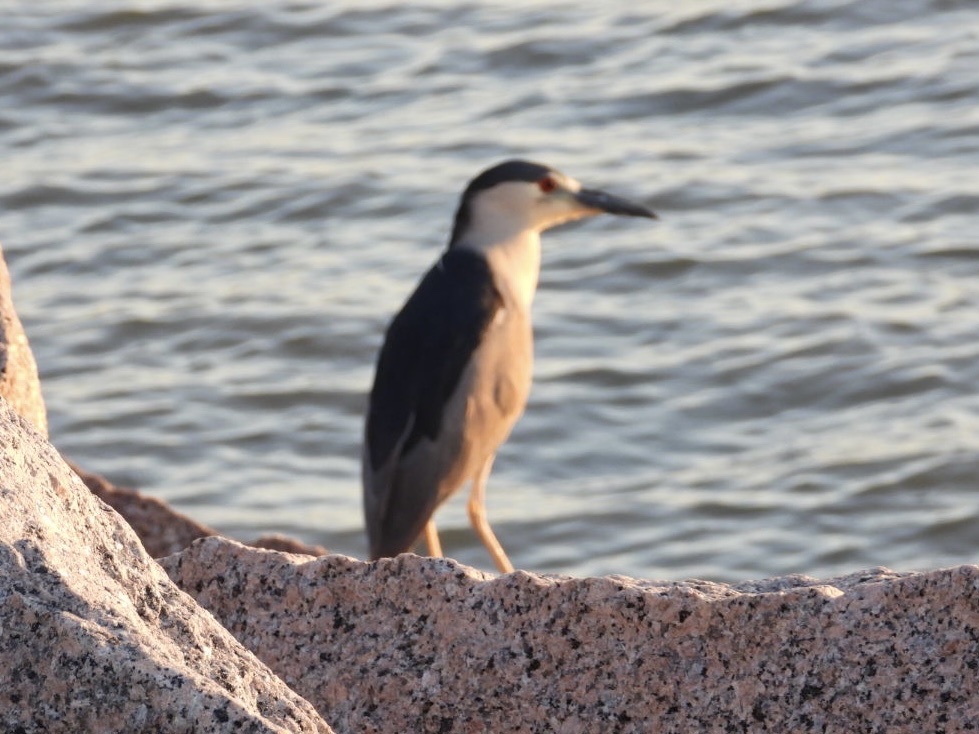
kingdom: Animalia
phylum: Chordata
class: Aves
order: Pelecaniformes
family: Ardeidae
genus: Nycticorax
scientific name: Nycticorax nycticorax
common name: Black-crowned night heron
